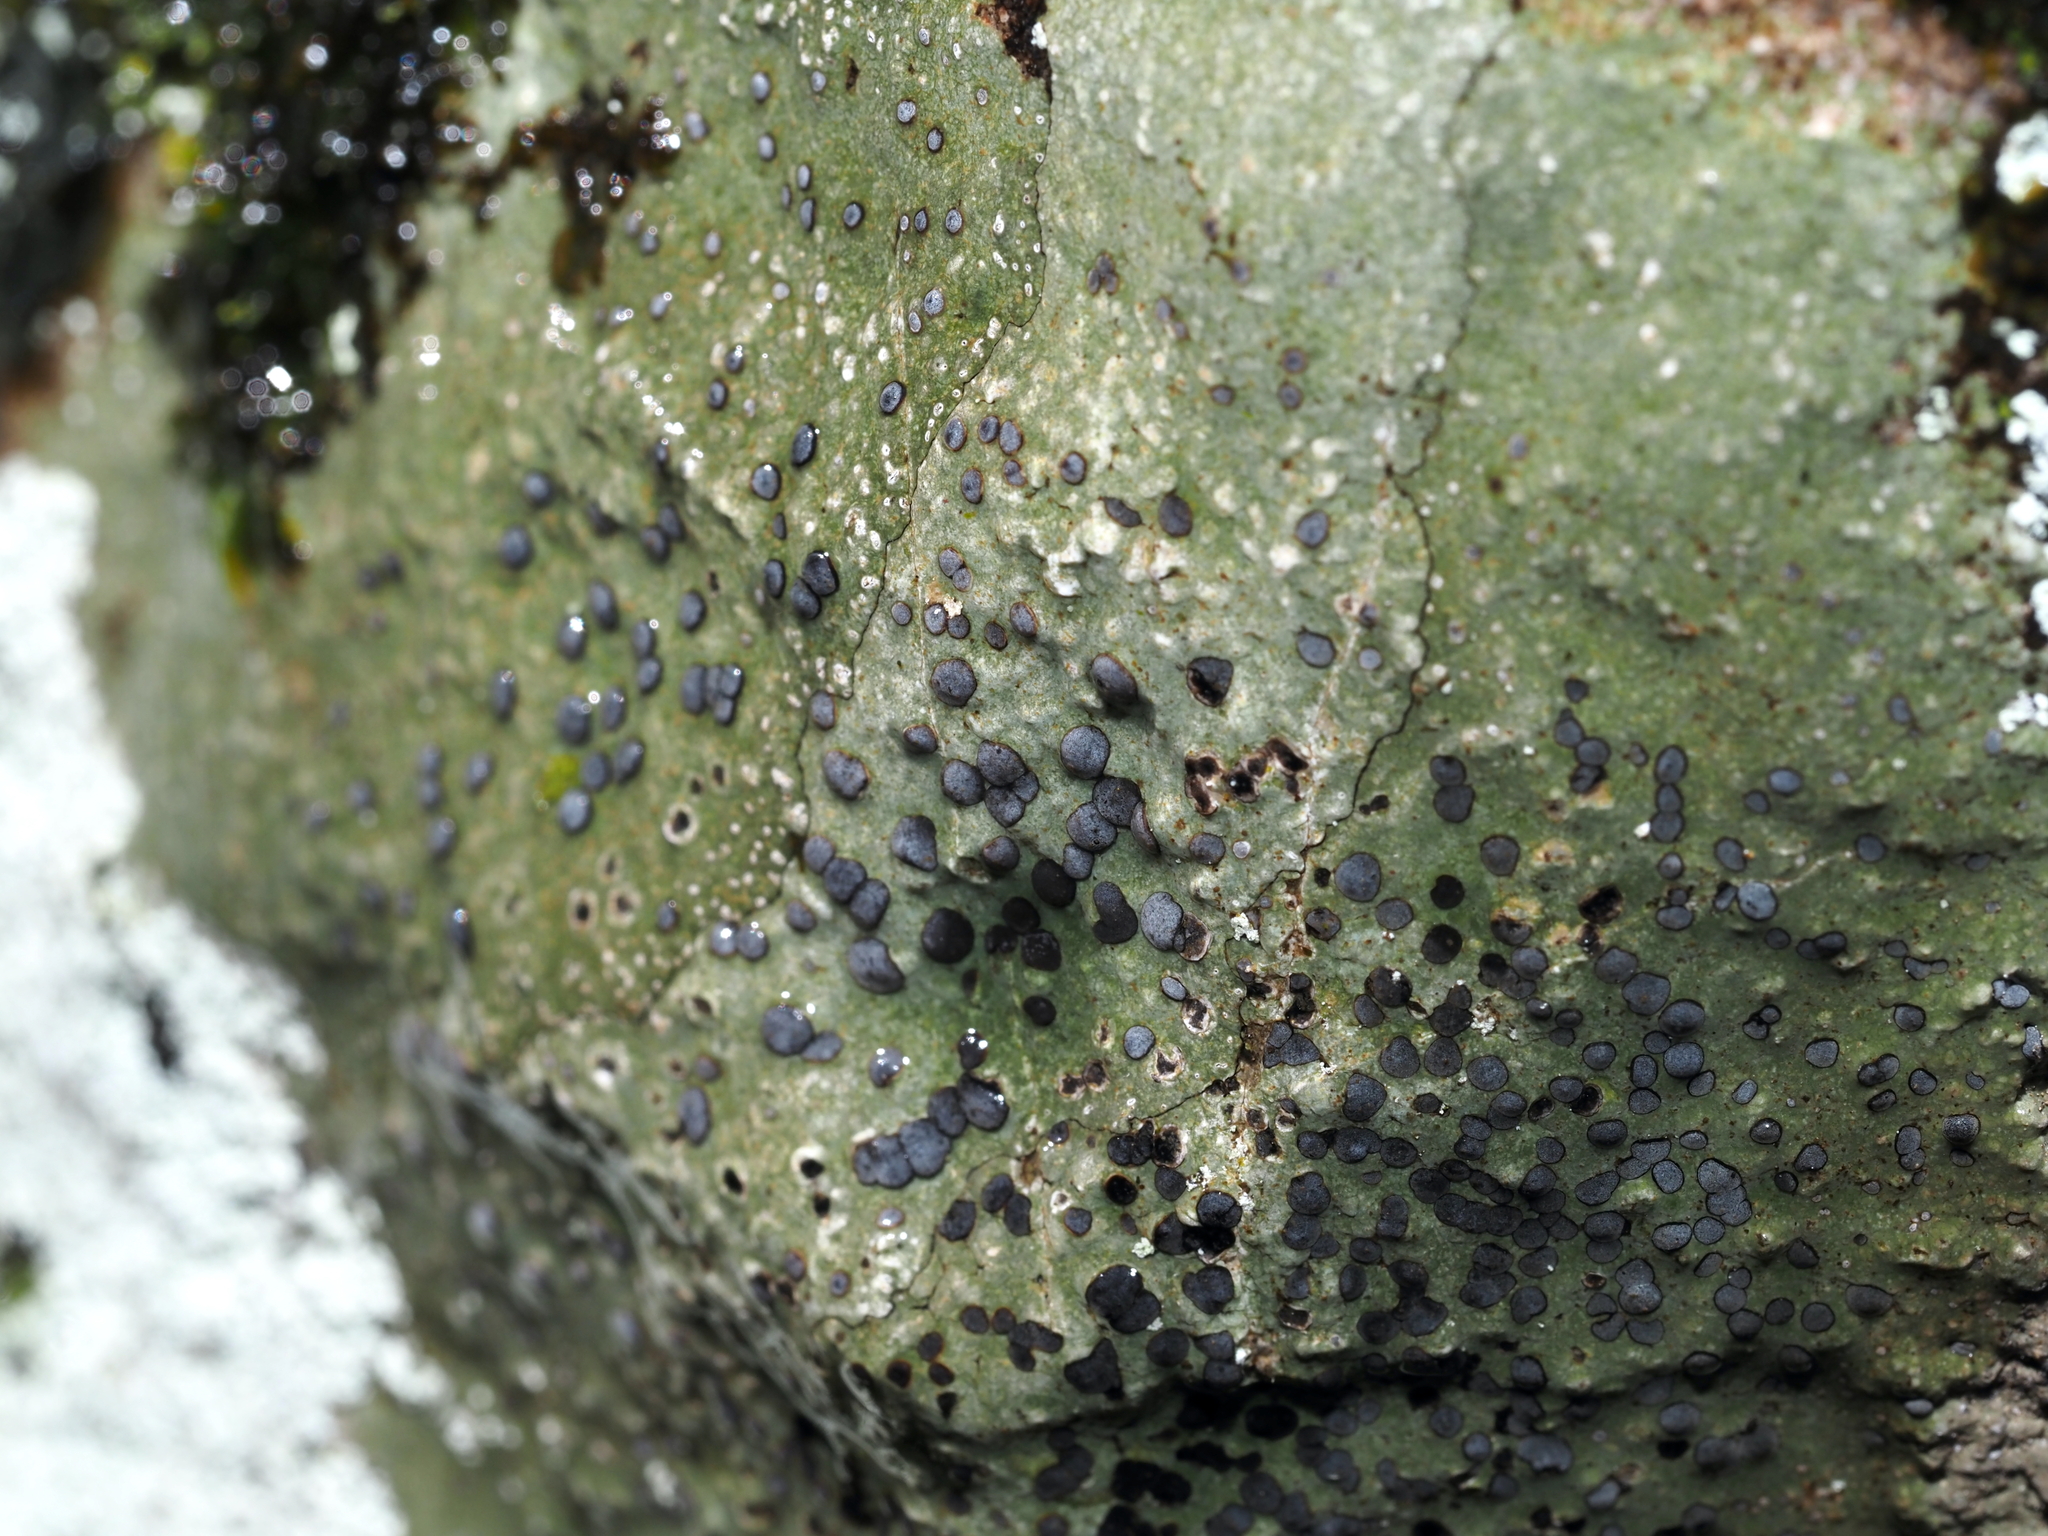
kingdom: Fungi
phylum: Ascomycota
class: Lecanoromycetes
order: Lecideales
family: Lecideaceae
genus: Porpidia
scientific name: Porpidia albocaerulescens
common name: Smokey-eyed boulder lichen
